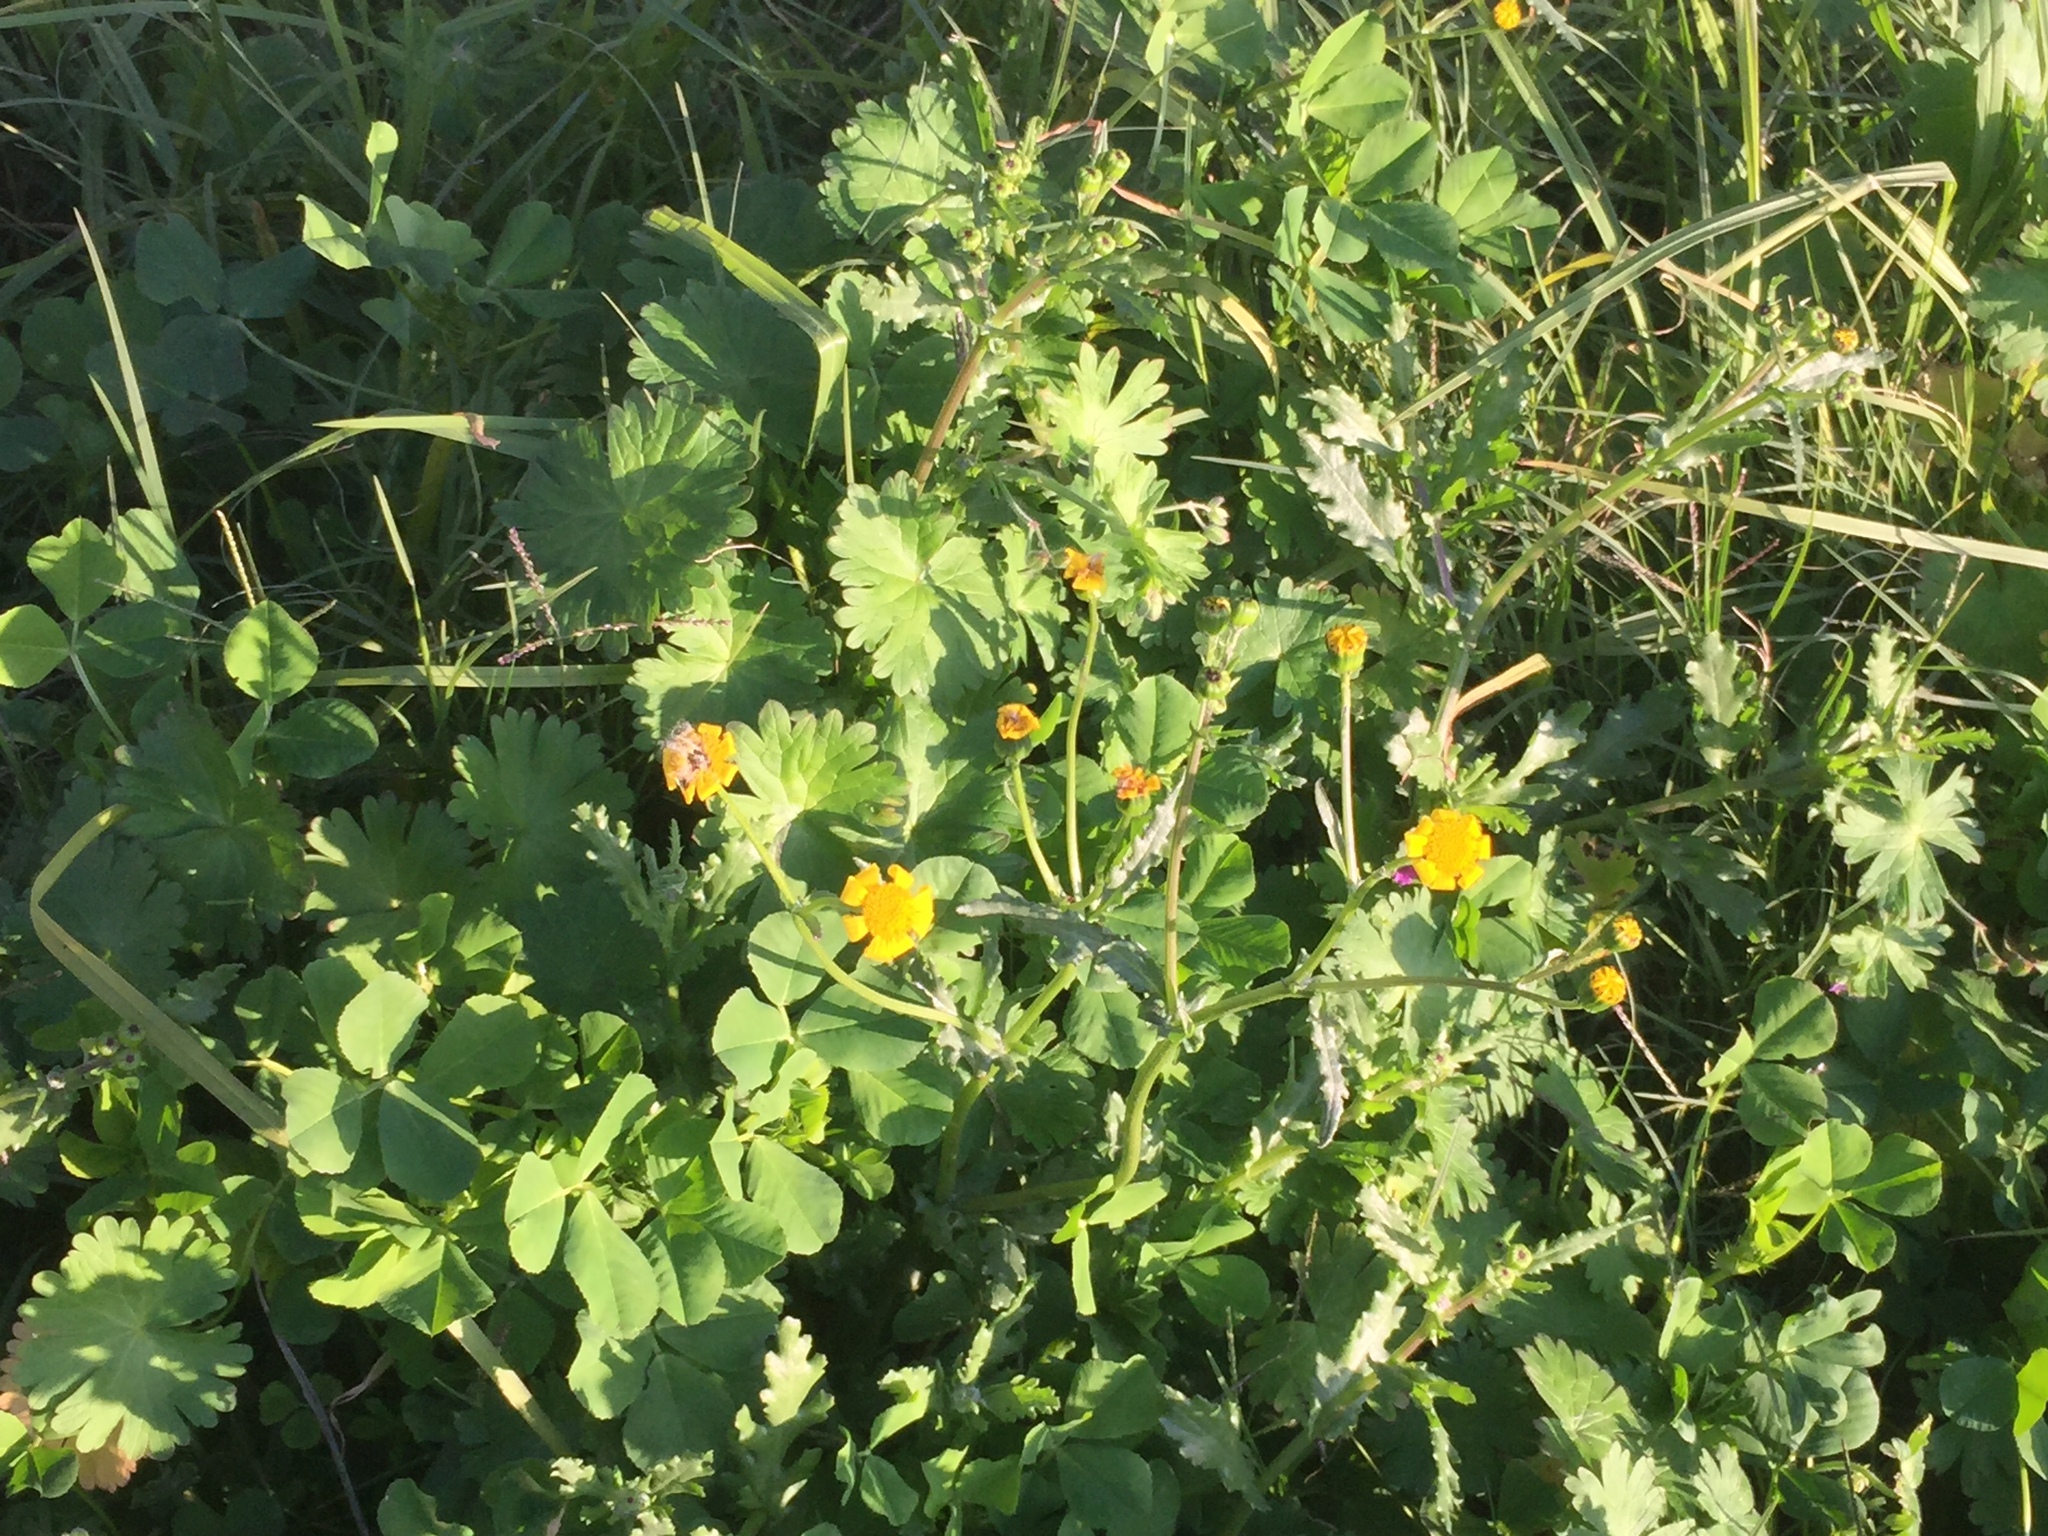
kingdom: Plantae
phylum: Tracheophyta
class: Magnoliopsida
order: Asterales
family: Asteraceae
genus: Senecio
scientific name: Senecio littoreus
